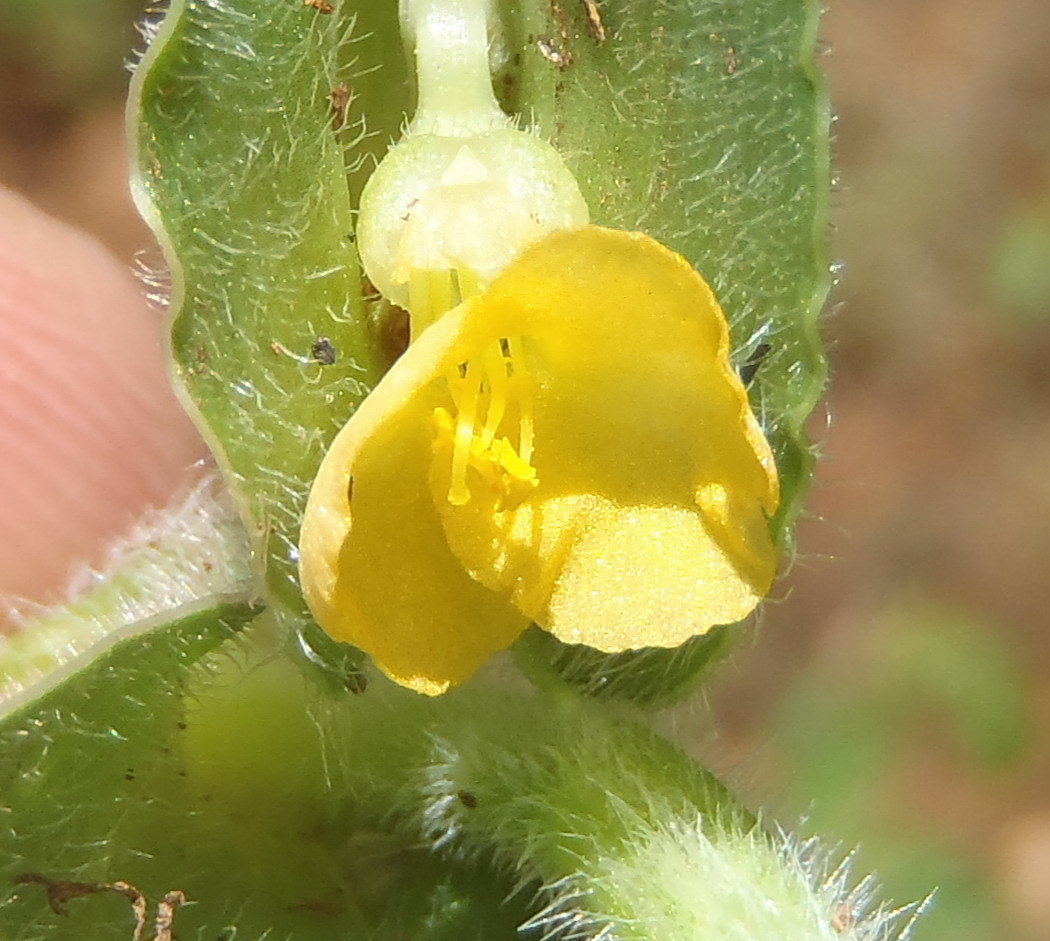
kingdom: Plantae
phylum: Tracheophyta
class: Liliopsida
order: Commelinales
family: Commelinaceae
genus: Commelina
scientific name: Commelina africana
